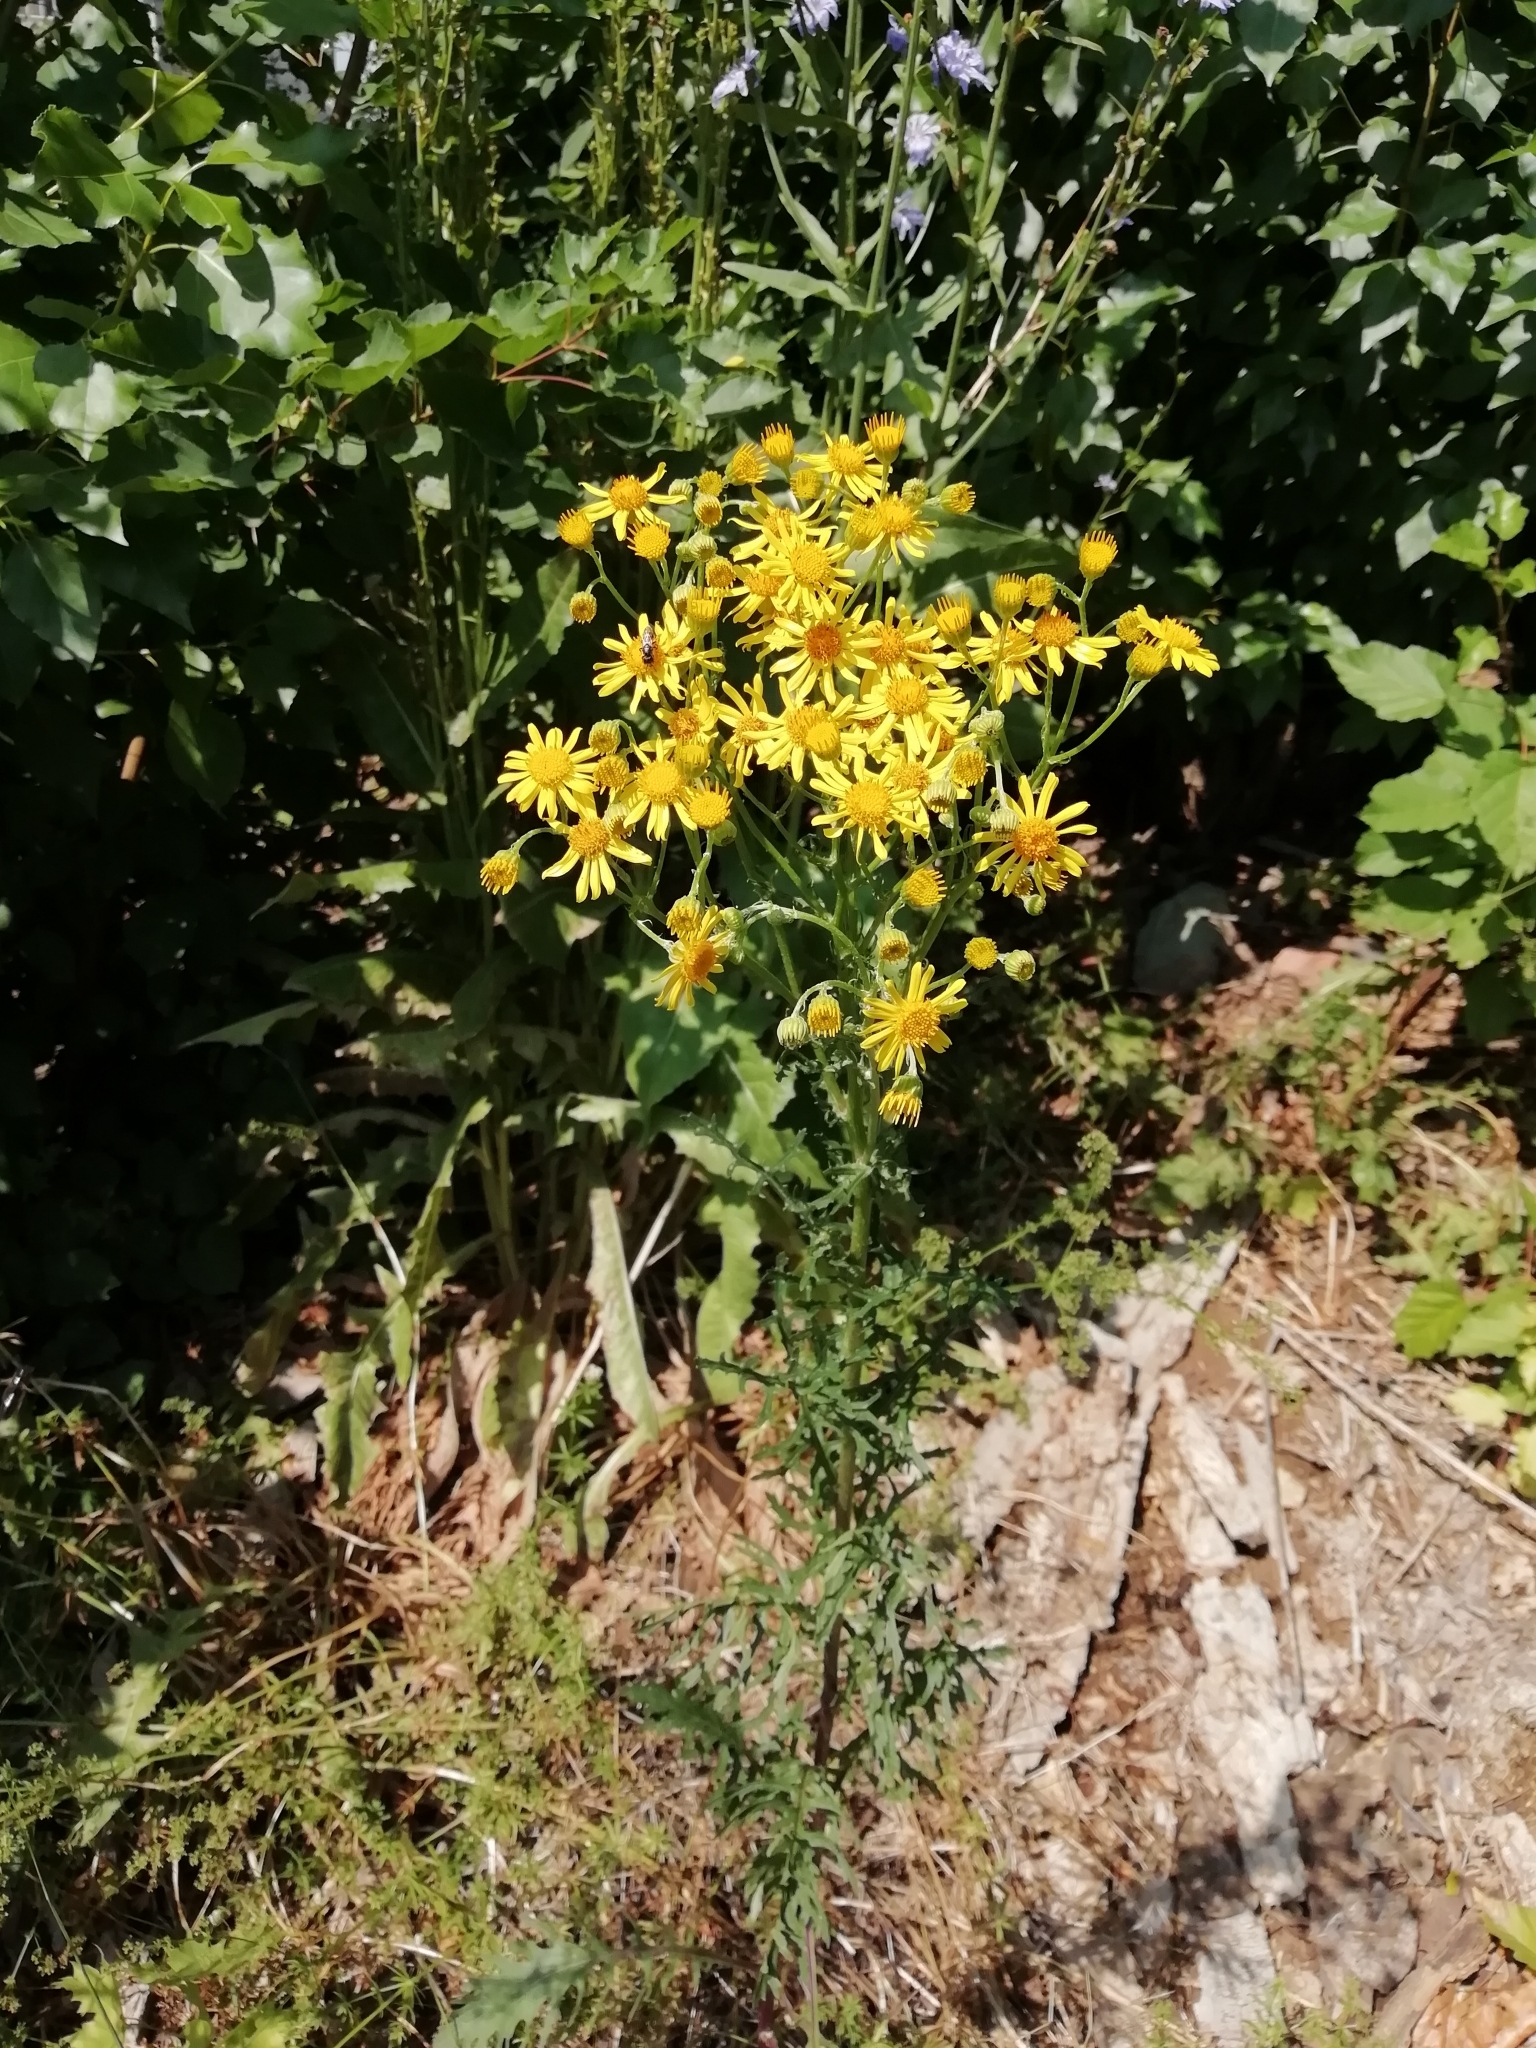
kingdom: Plantae
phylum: Tracheophyta
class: Magnoliopsida
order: Asterales
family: Asteraceae
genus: Jacobaea
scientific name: Jacobaea vulgaris
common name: Stinking willie
